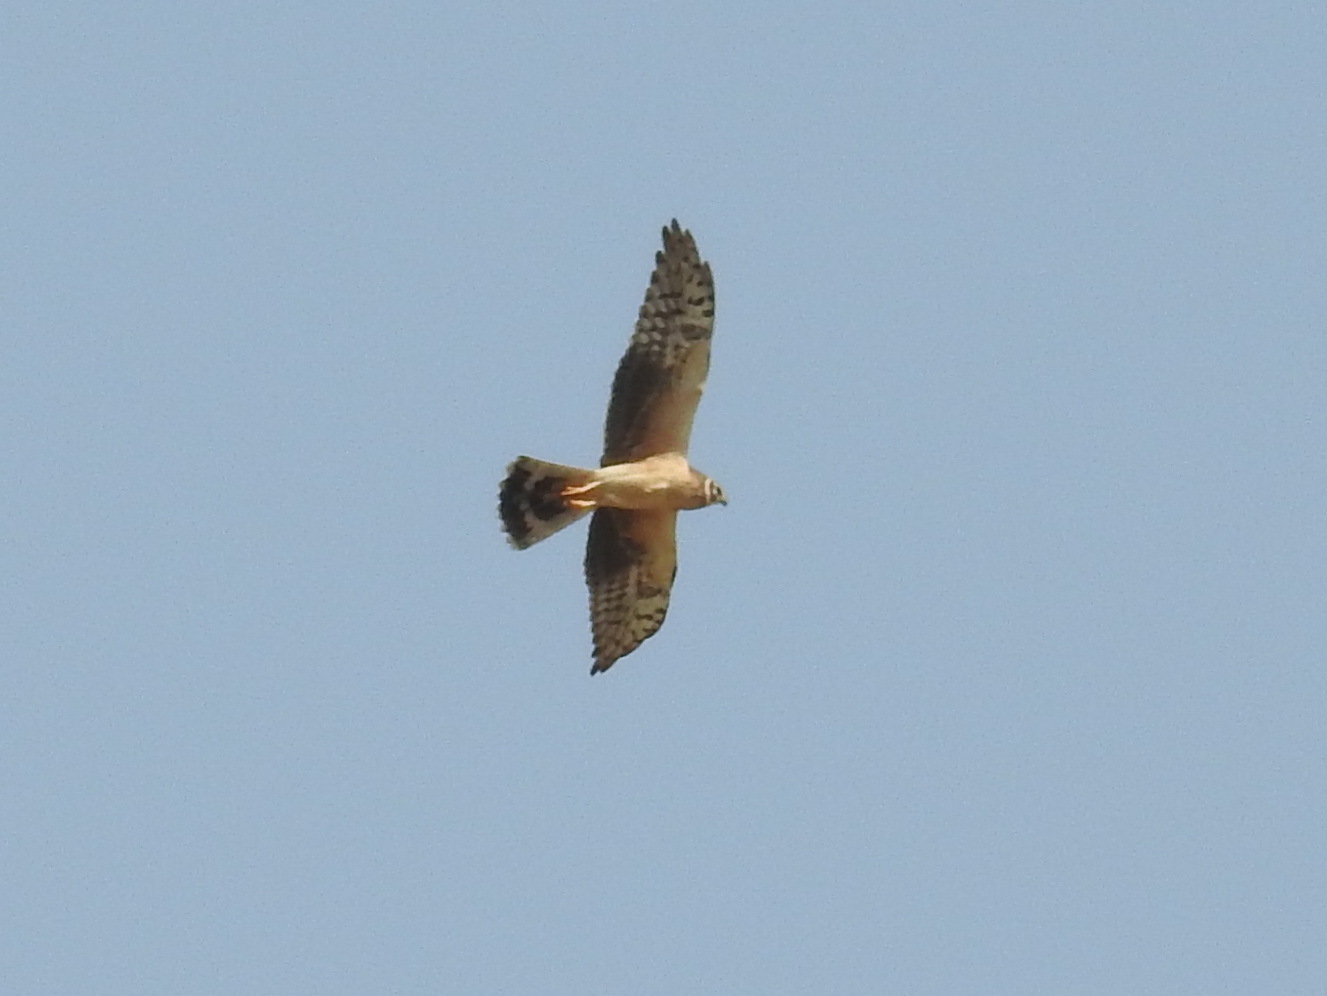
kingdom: Animalia
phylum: Chordata
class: Aves
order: Accipitriformes
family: Accipitridae
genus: Circus
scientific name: Circus macrourus
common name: Pallid harrier
